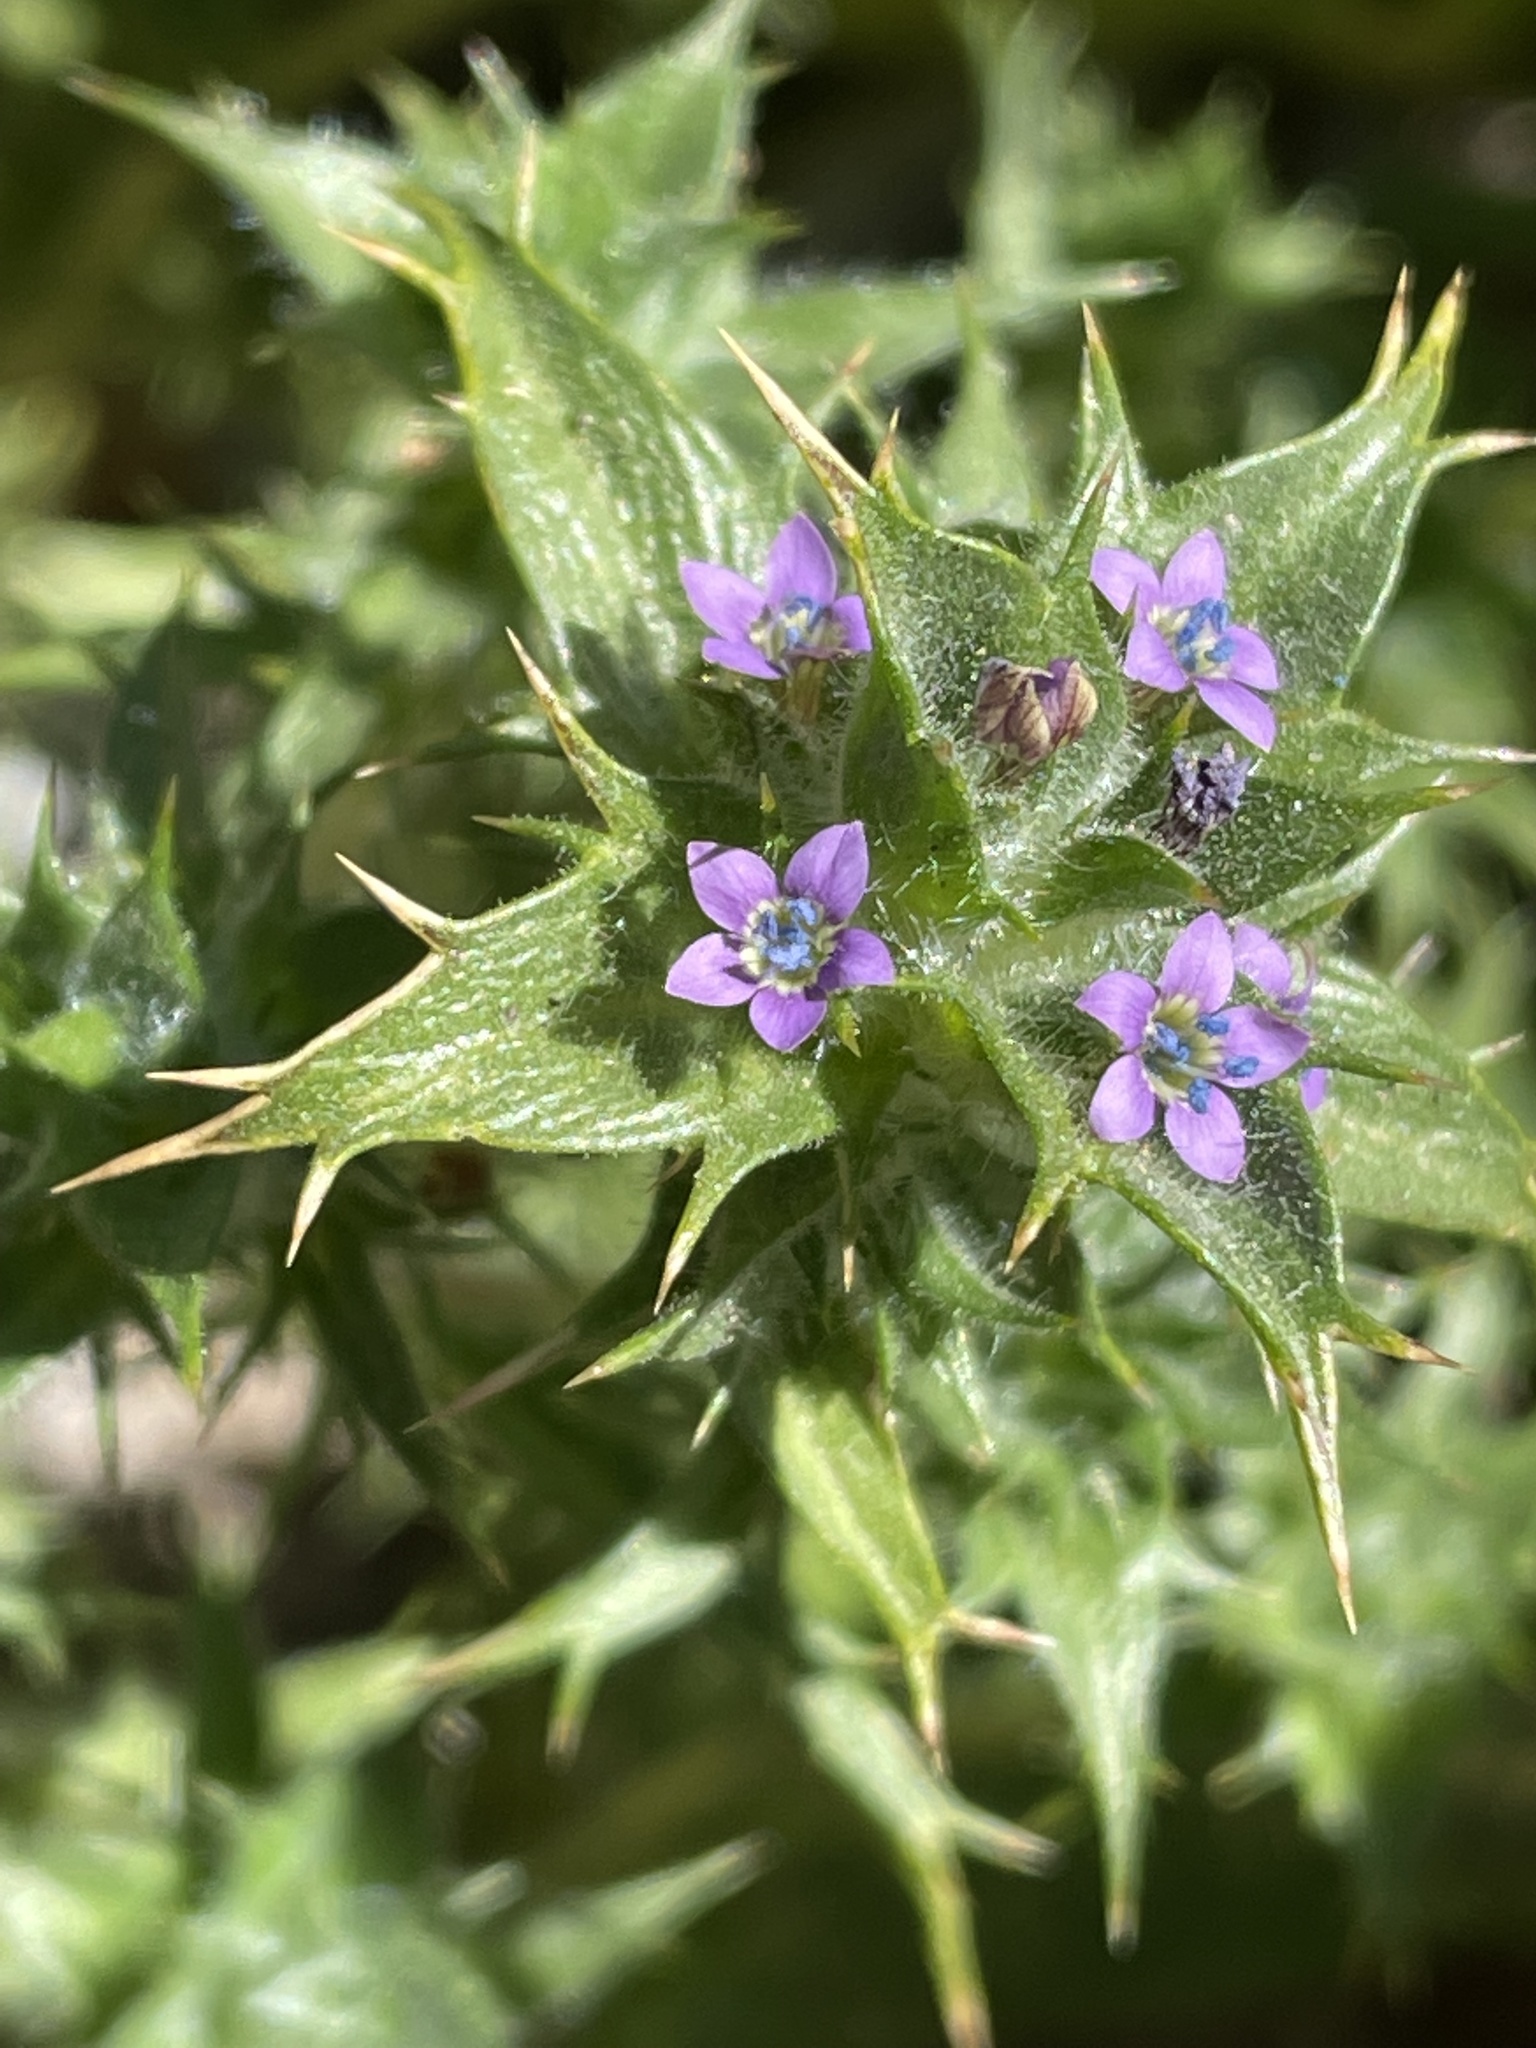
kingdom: Plantae
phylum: Tracheophyta
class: Magnoliopsida
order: Ericales
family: Polemoniaceae
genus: Navarretia
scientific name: Navarretia atractyloides
